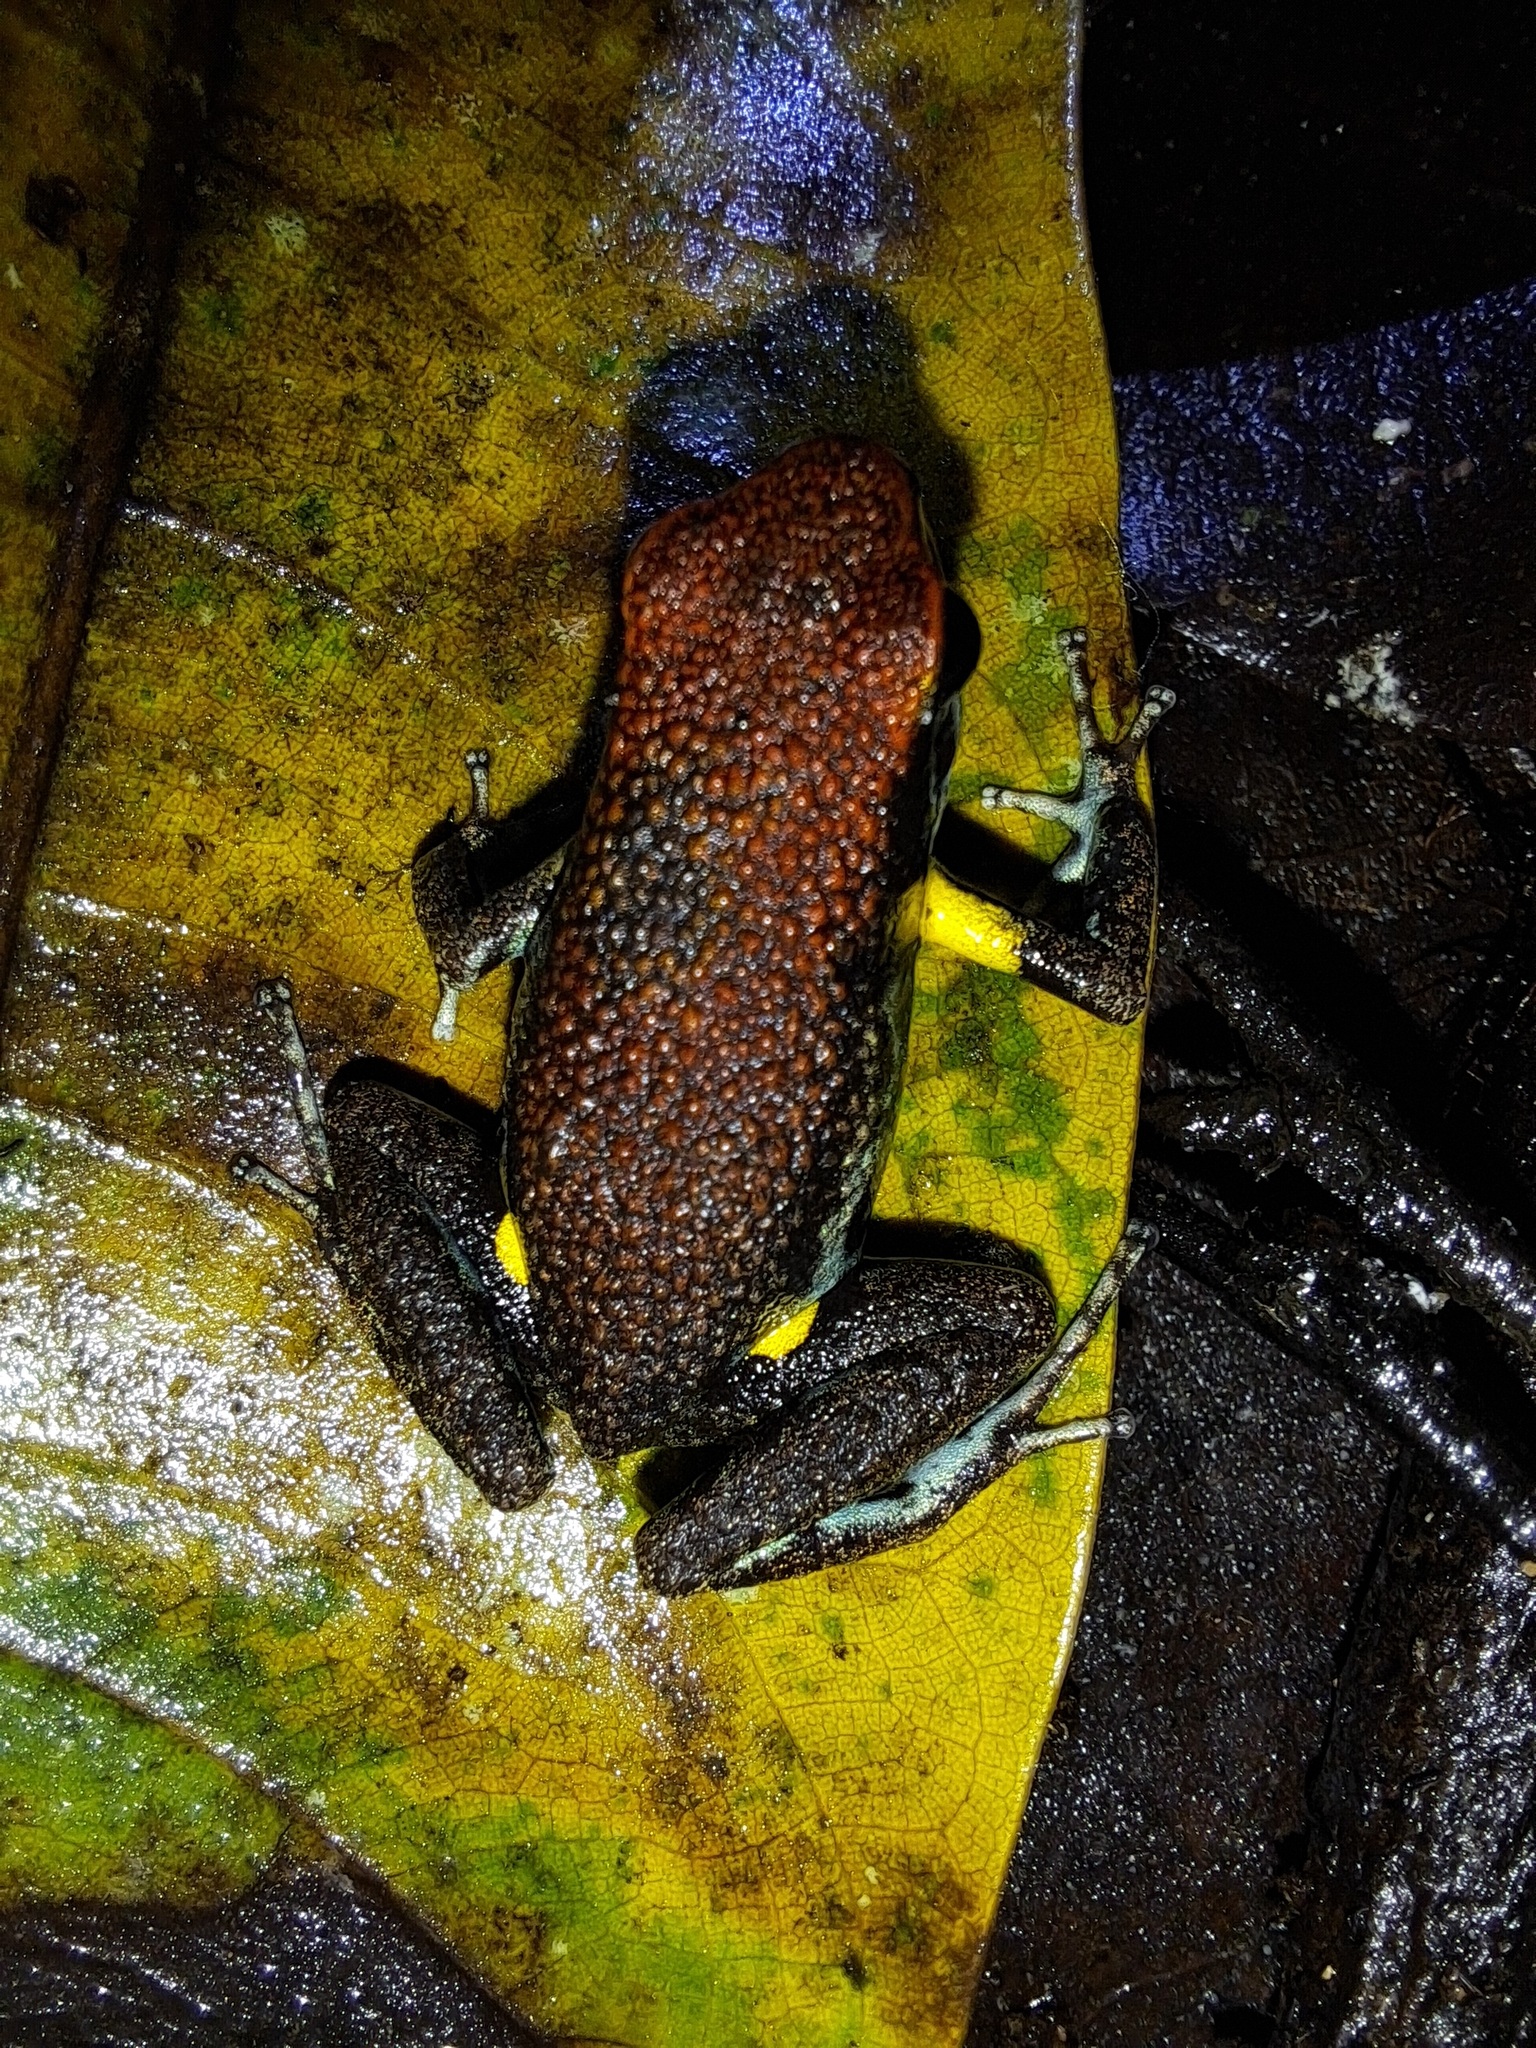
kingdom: Animalia
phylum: Chordata
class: Amphibia
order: Anura
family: Dendrobatidae
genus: Ameerega
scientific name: Ameerega bilinguis
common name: Ecuadorean poison frog
